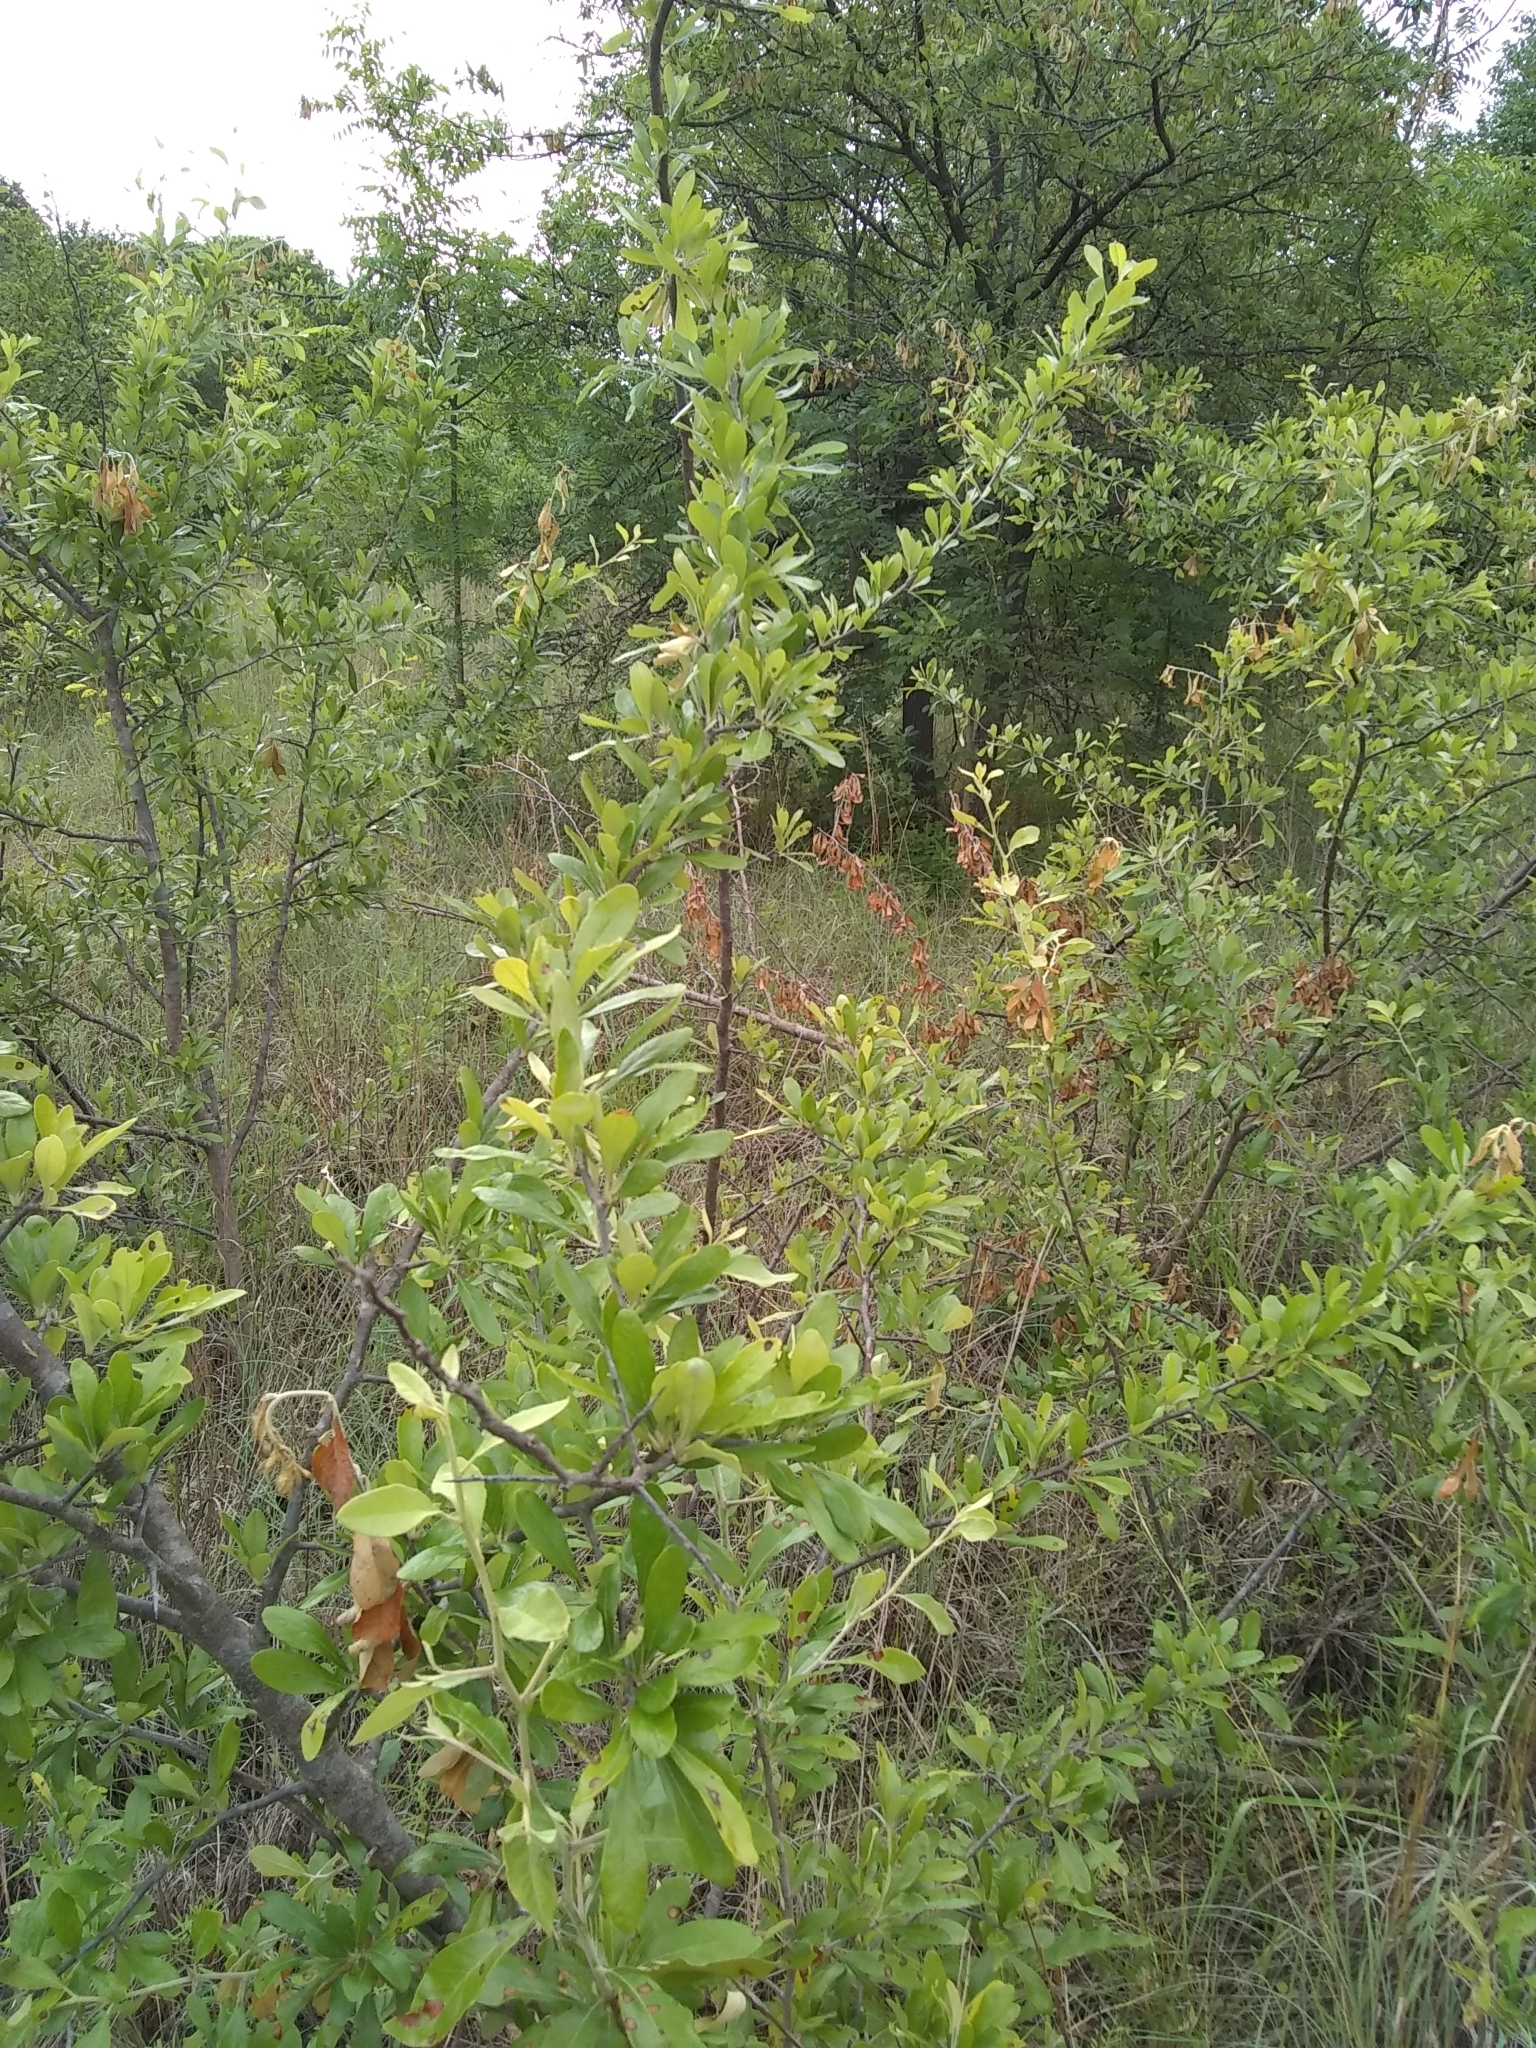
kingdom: Plantae
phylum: Tracheophyta
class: Magnoliopsida
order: Ericales
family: Sapotaceae
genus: Sideroxylon
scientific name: Sideroxylon lanuginosum
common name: Chittamwood
